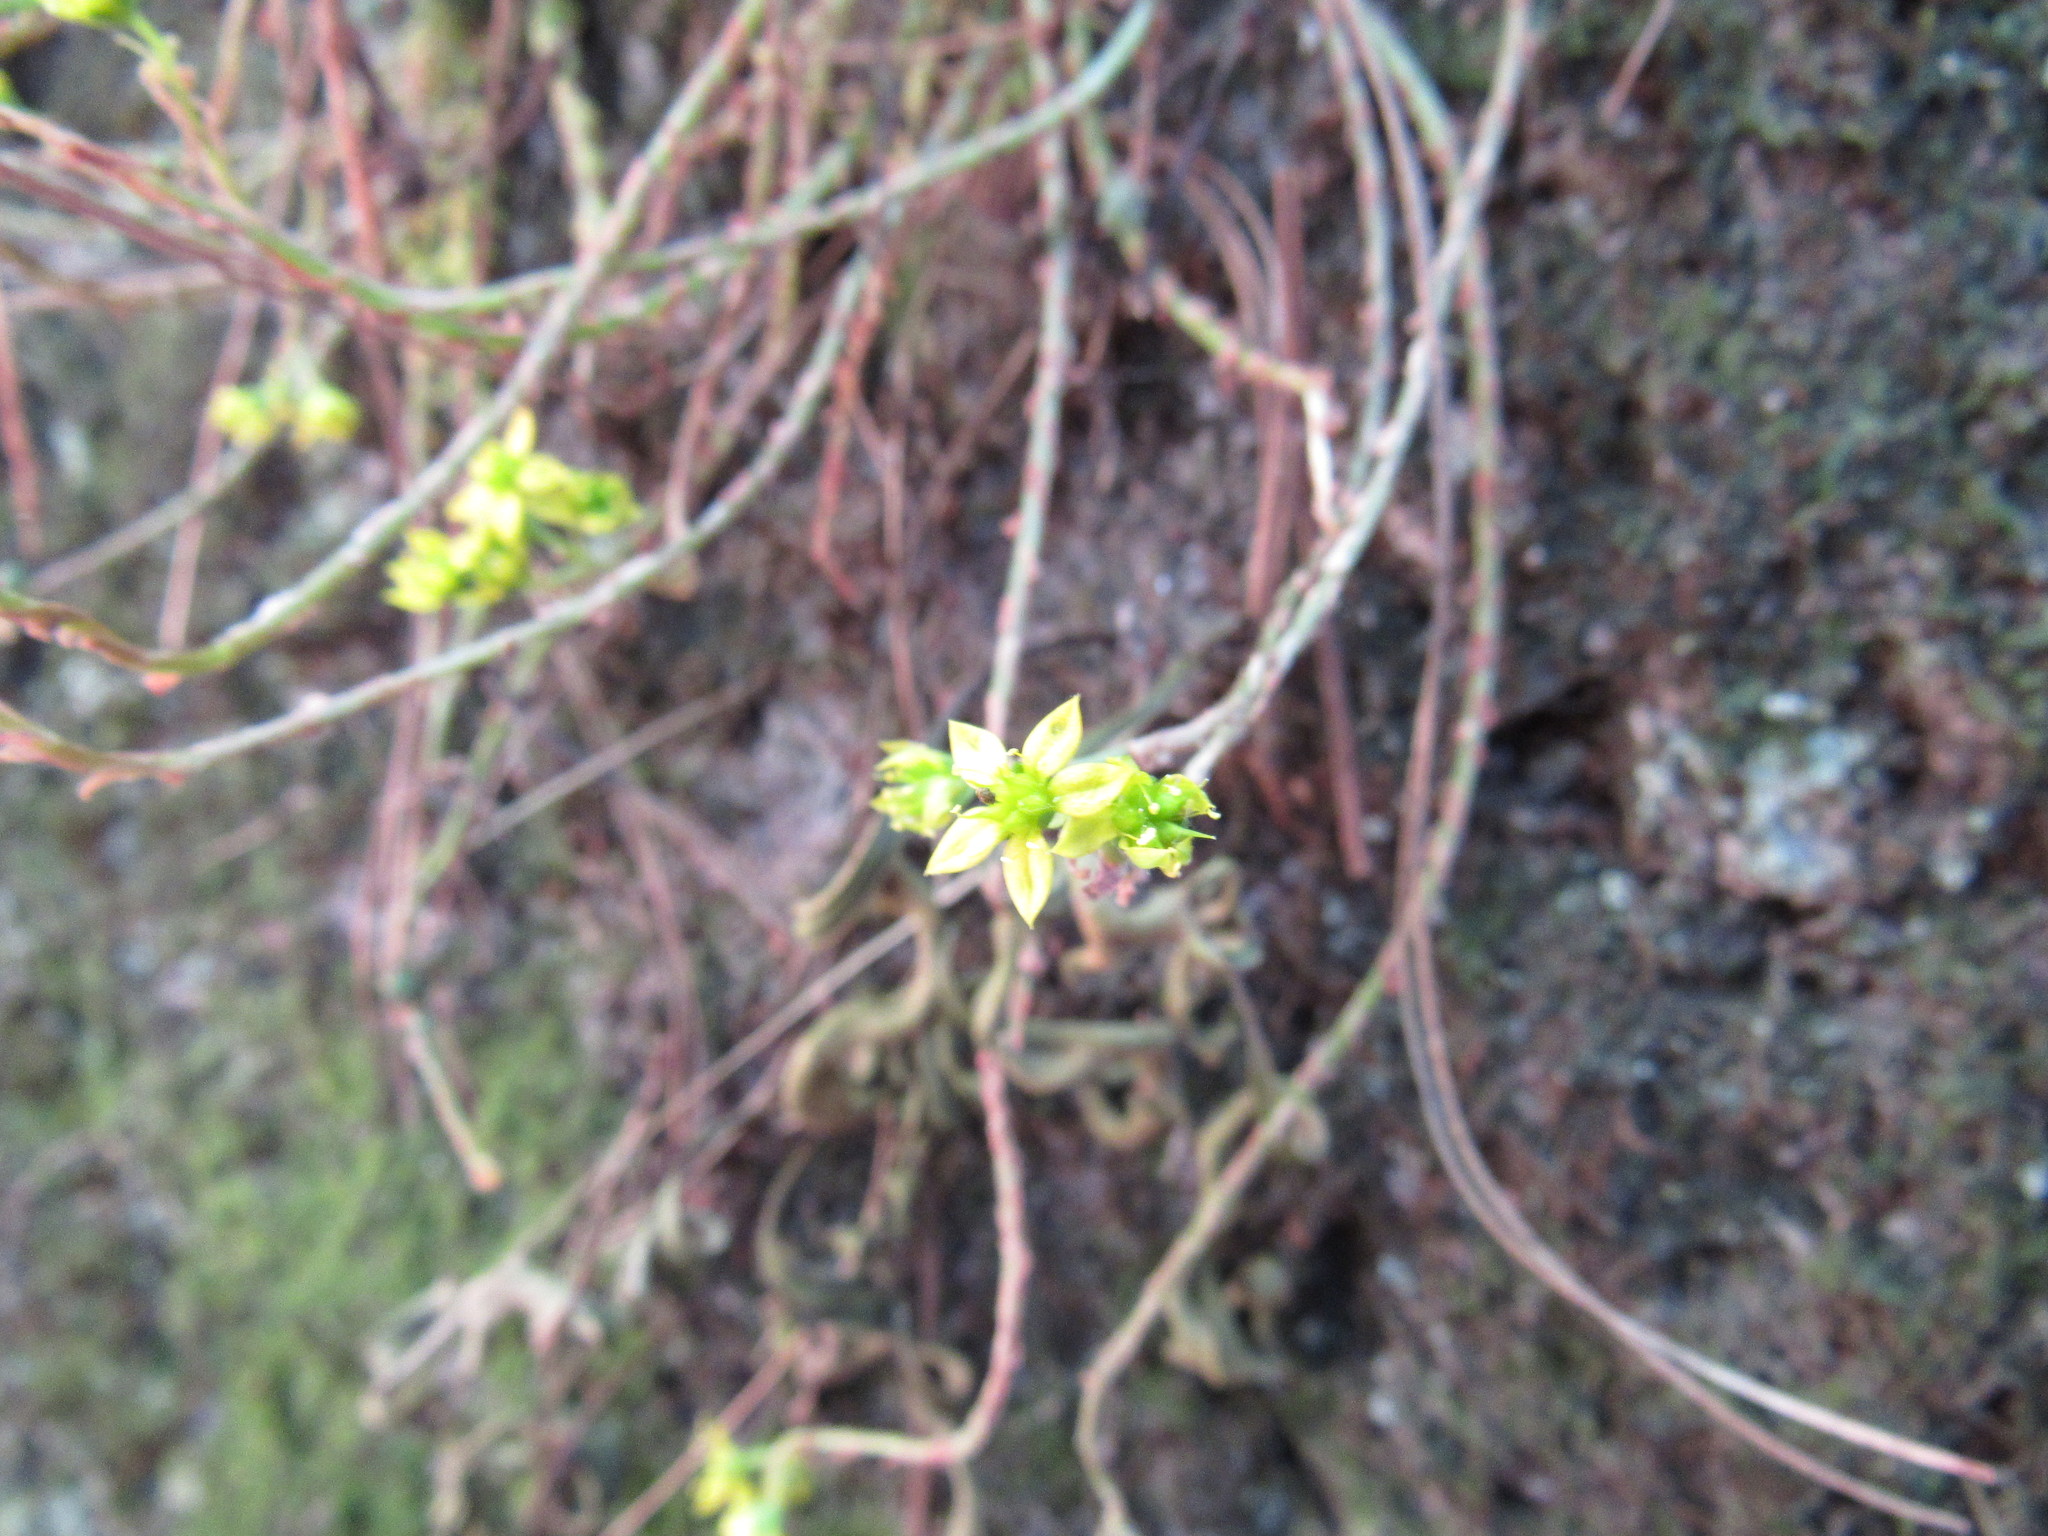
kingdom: Plantae
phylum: Tracheophyta
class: Magnoliopsida
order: Saxifragales
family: Crassulaceae
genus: Sedum
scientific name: Sedum greggii
